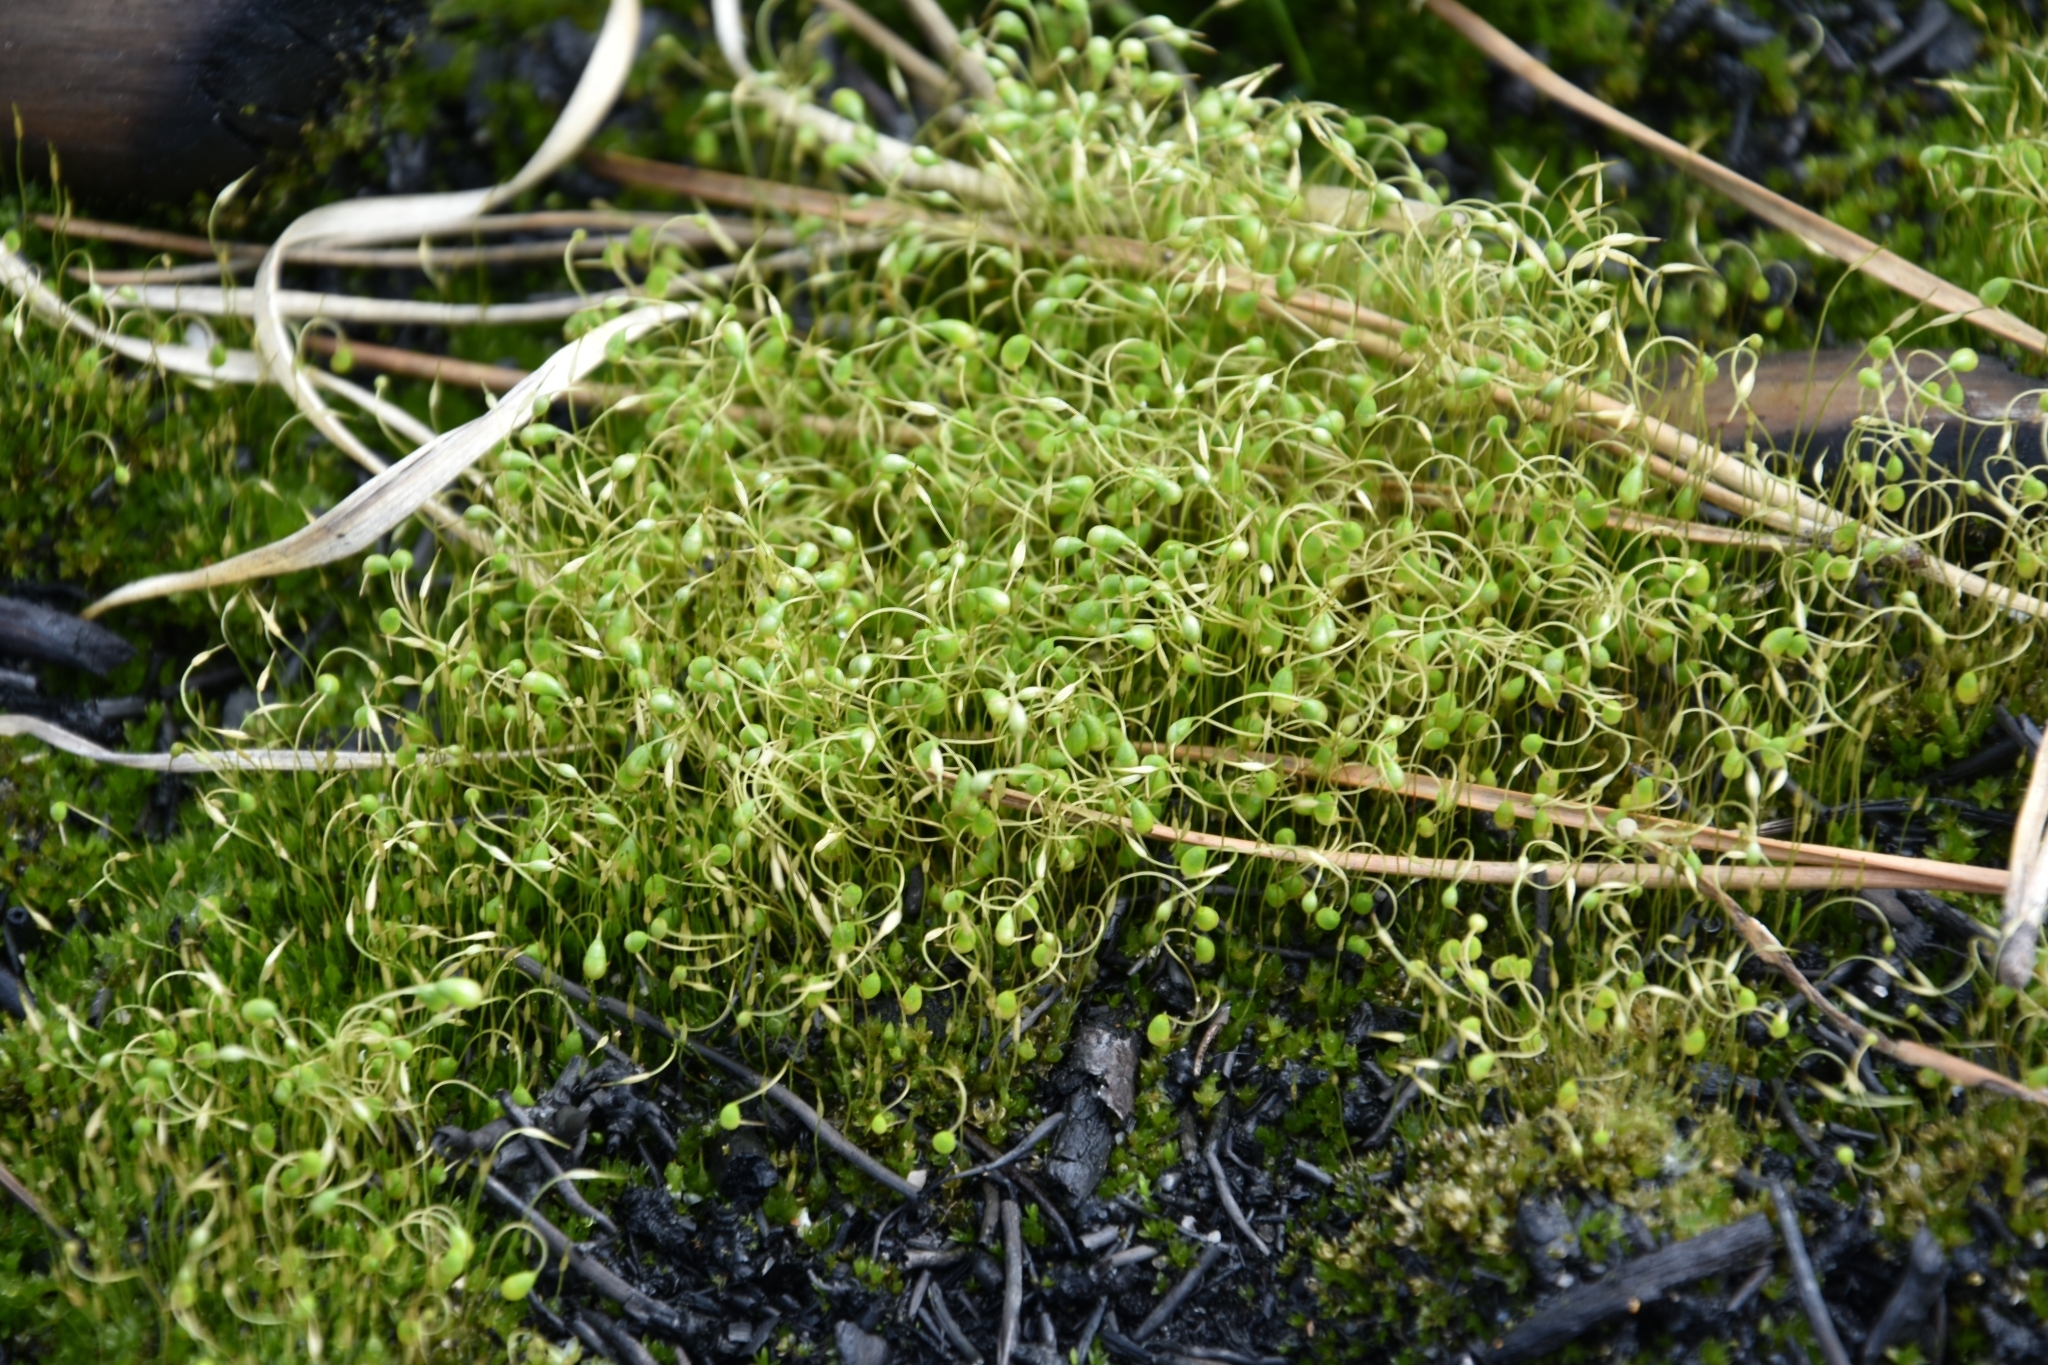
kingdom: Plantae
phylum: Bryophyta
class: Bryopsida
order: Funariales
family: Funariaceae
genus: Funaria
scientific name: Funaria hygrometrica
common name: Common cord moss
